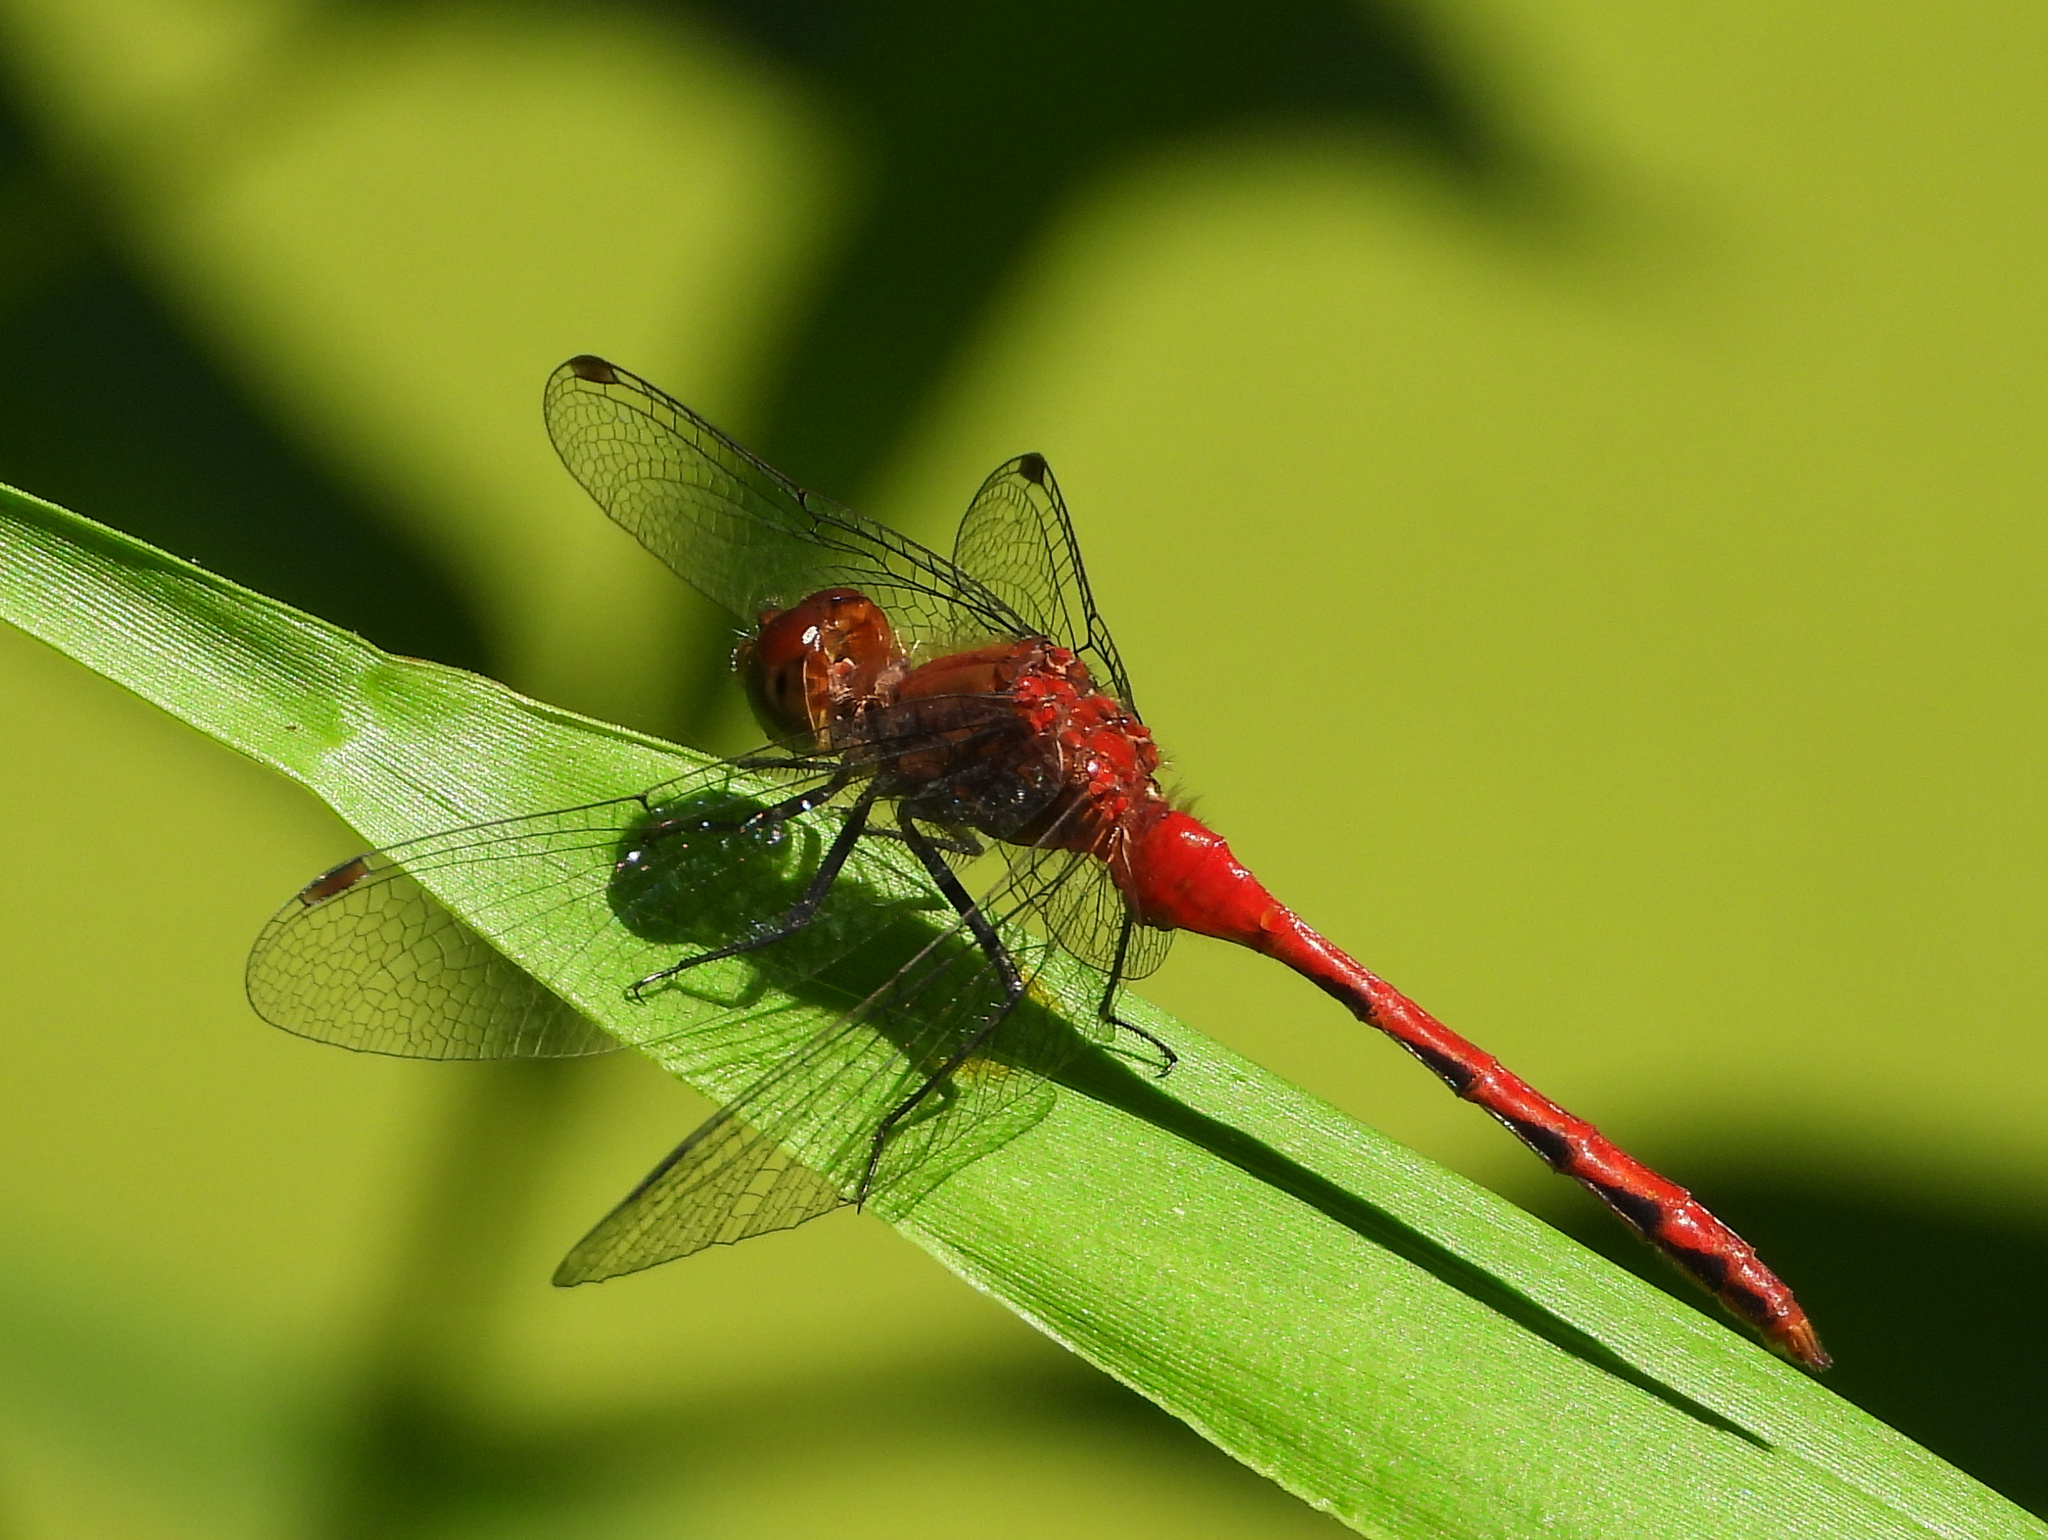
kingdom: Animalia
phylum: Arthropoda
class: Insecta
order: Odonata
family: Libellulidae
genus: Sympetrum
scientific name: Sympetrum
